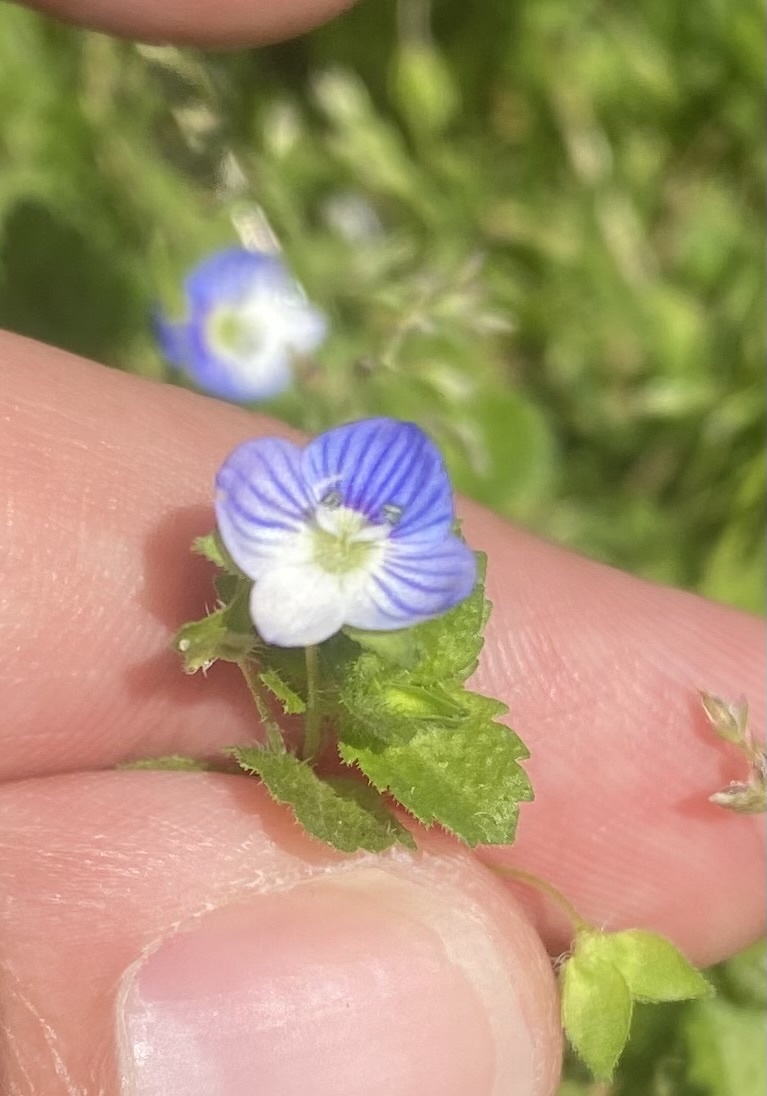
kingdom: Plantae
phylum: Tracheophyta
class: Magnoliopsida
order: Lamiales
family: Plantaginaceae
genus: Veronica
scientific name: Veronica persica
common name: Common field-speedwell
